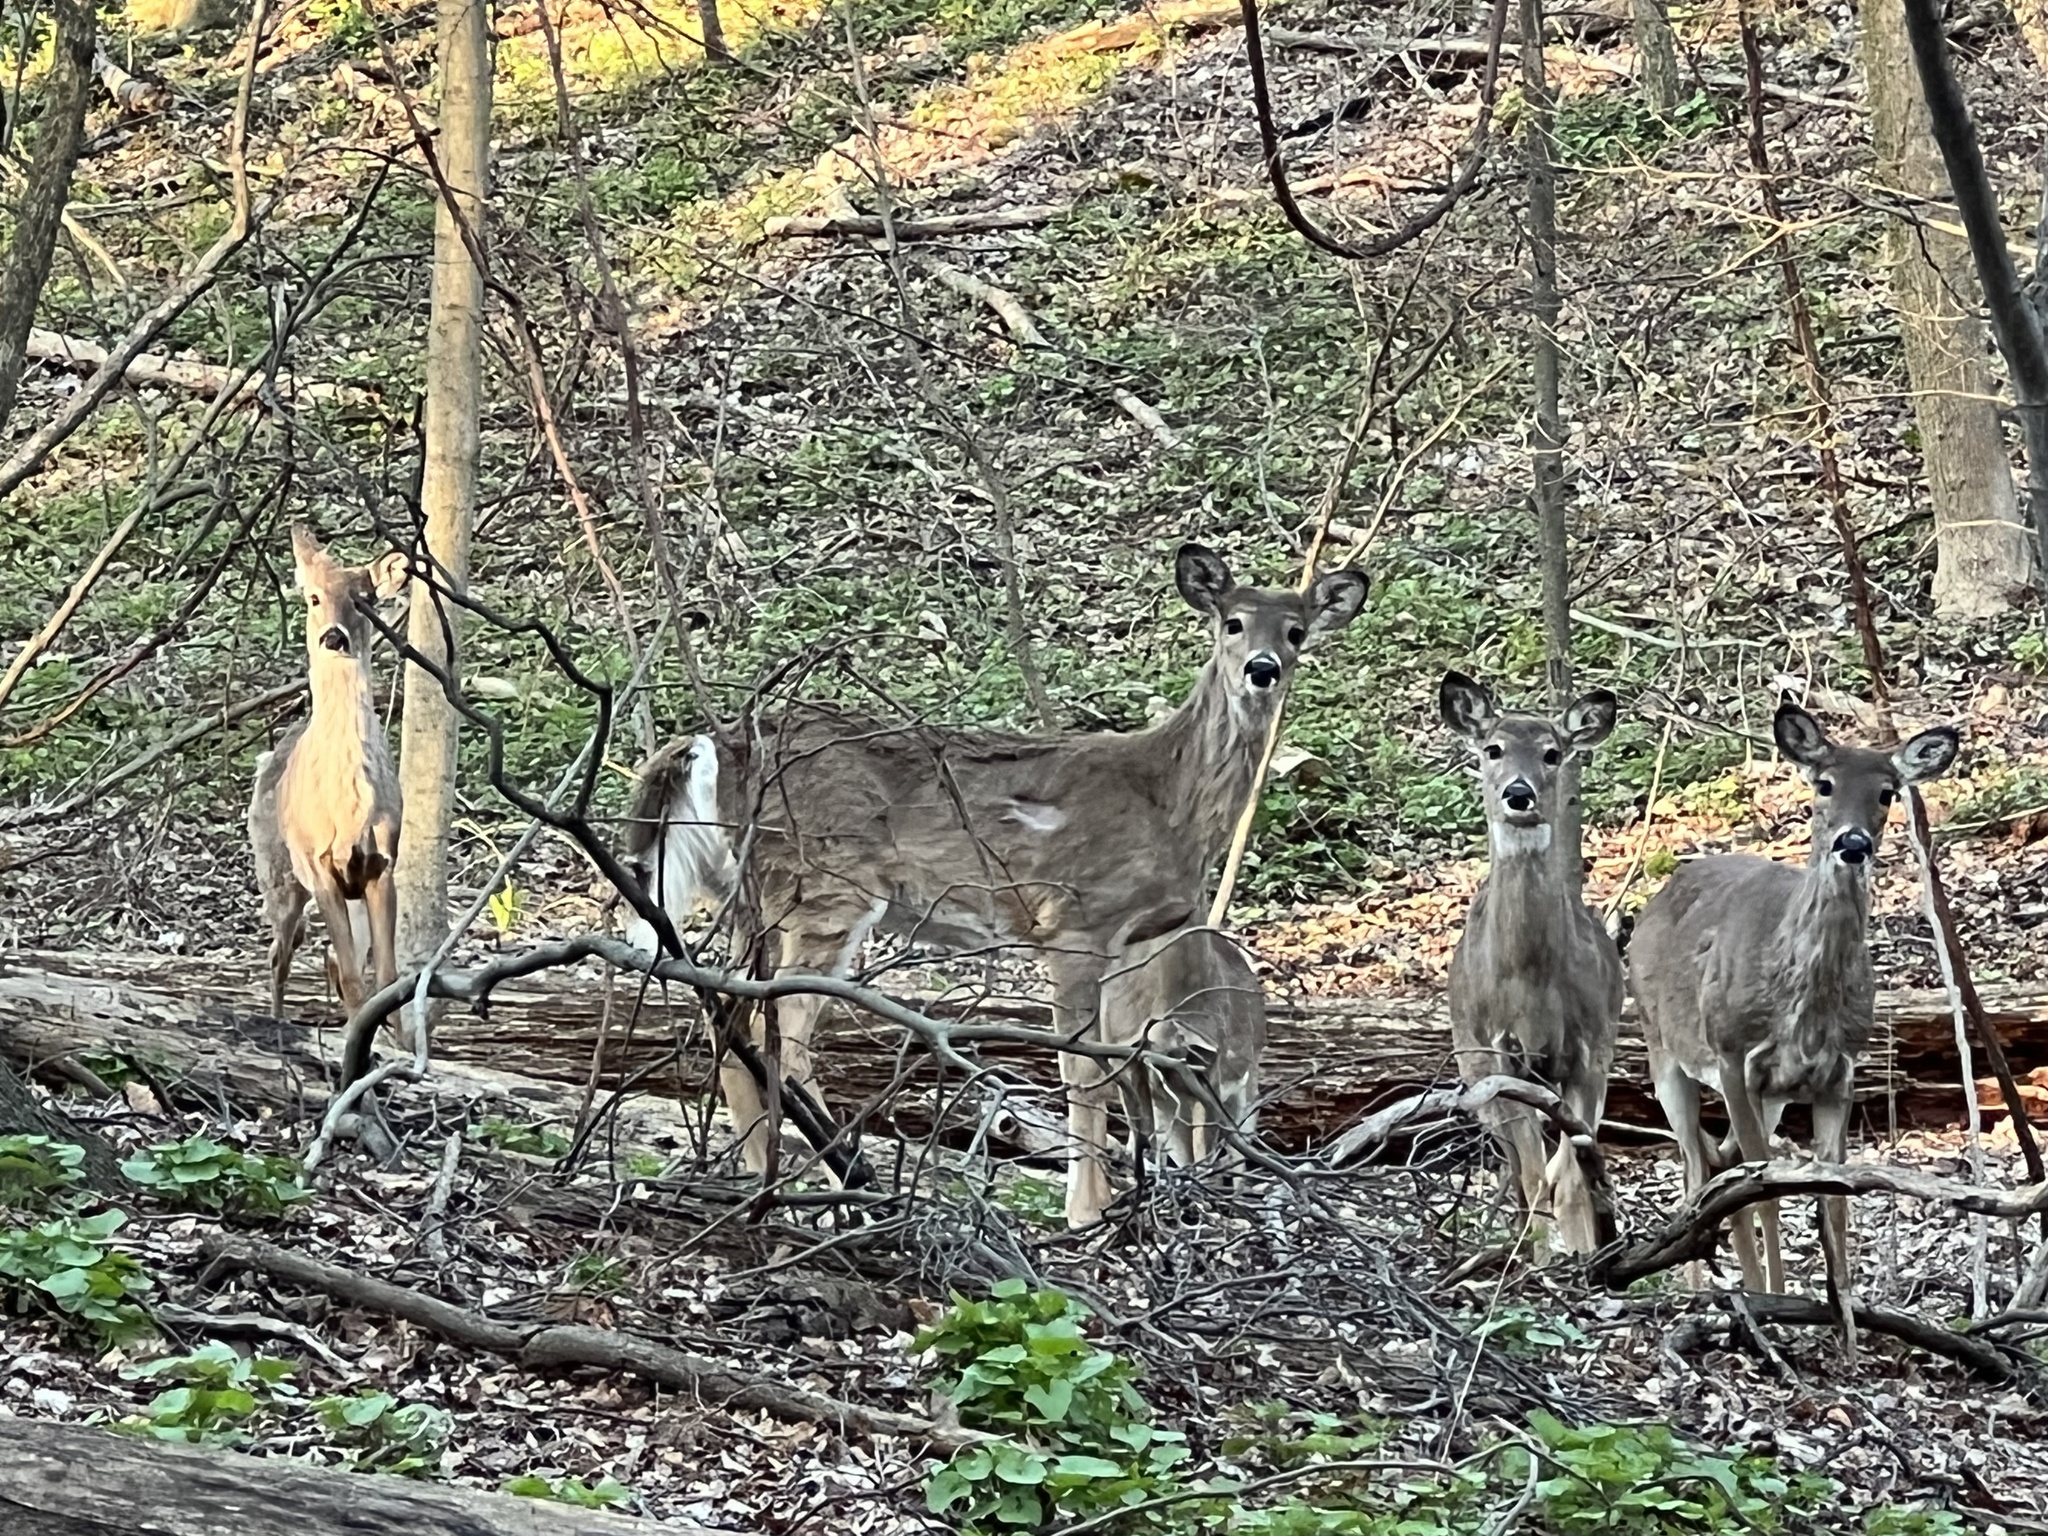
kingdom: Animalia
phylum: Chordata
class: Mammalia
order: Artiodactyla
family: Cervidae
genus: Odocoileus
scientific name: Odocoileus virginianus
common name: White-tailed deer
